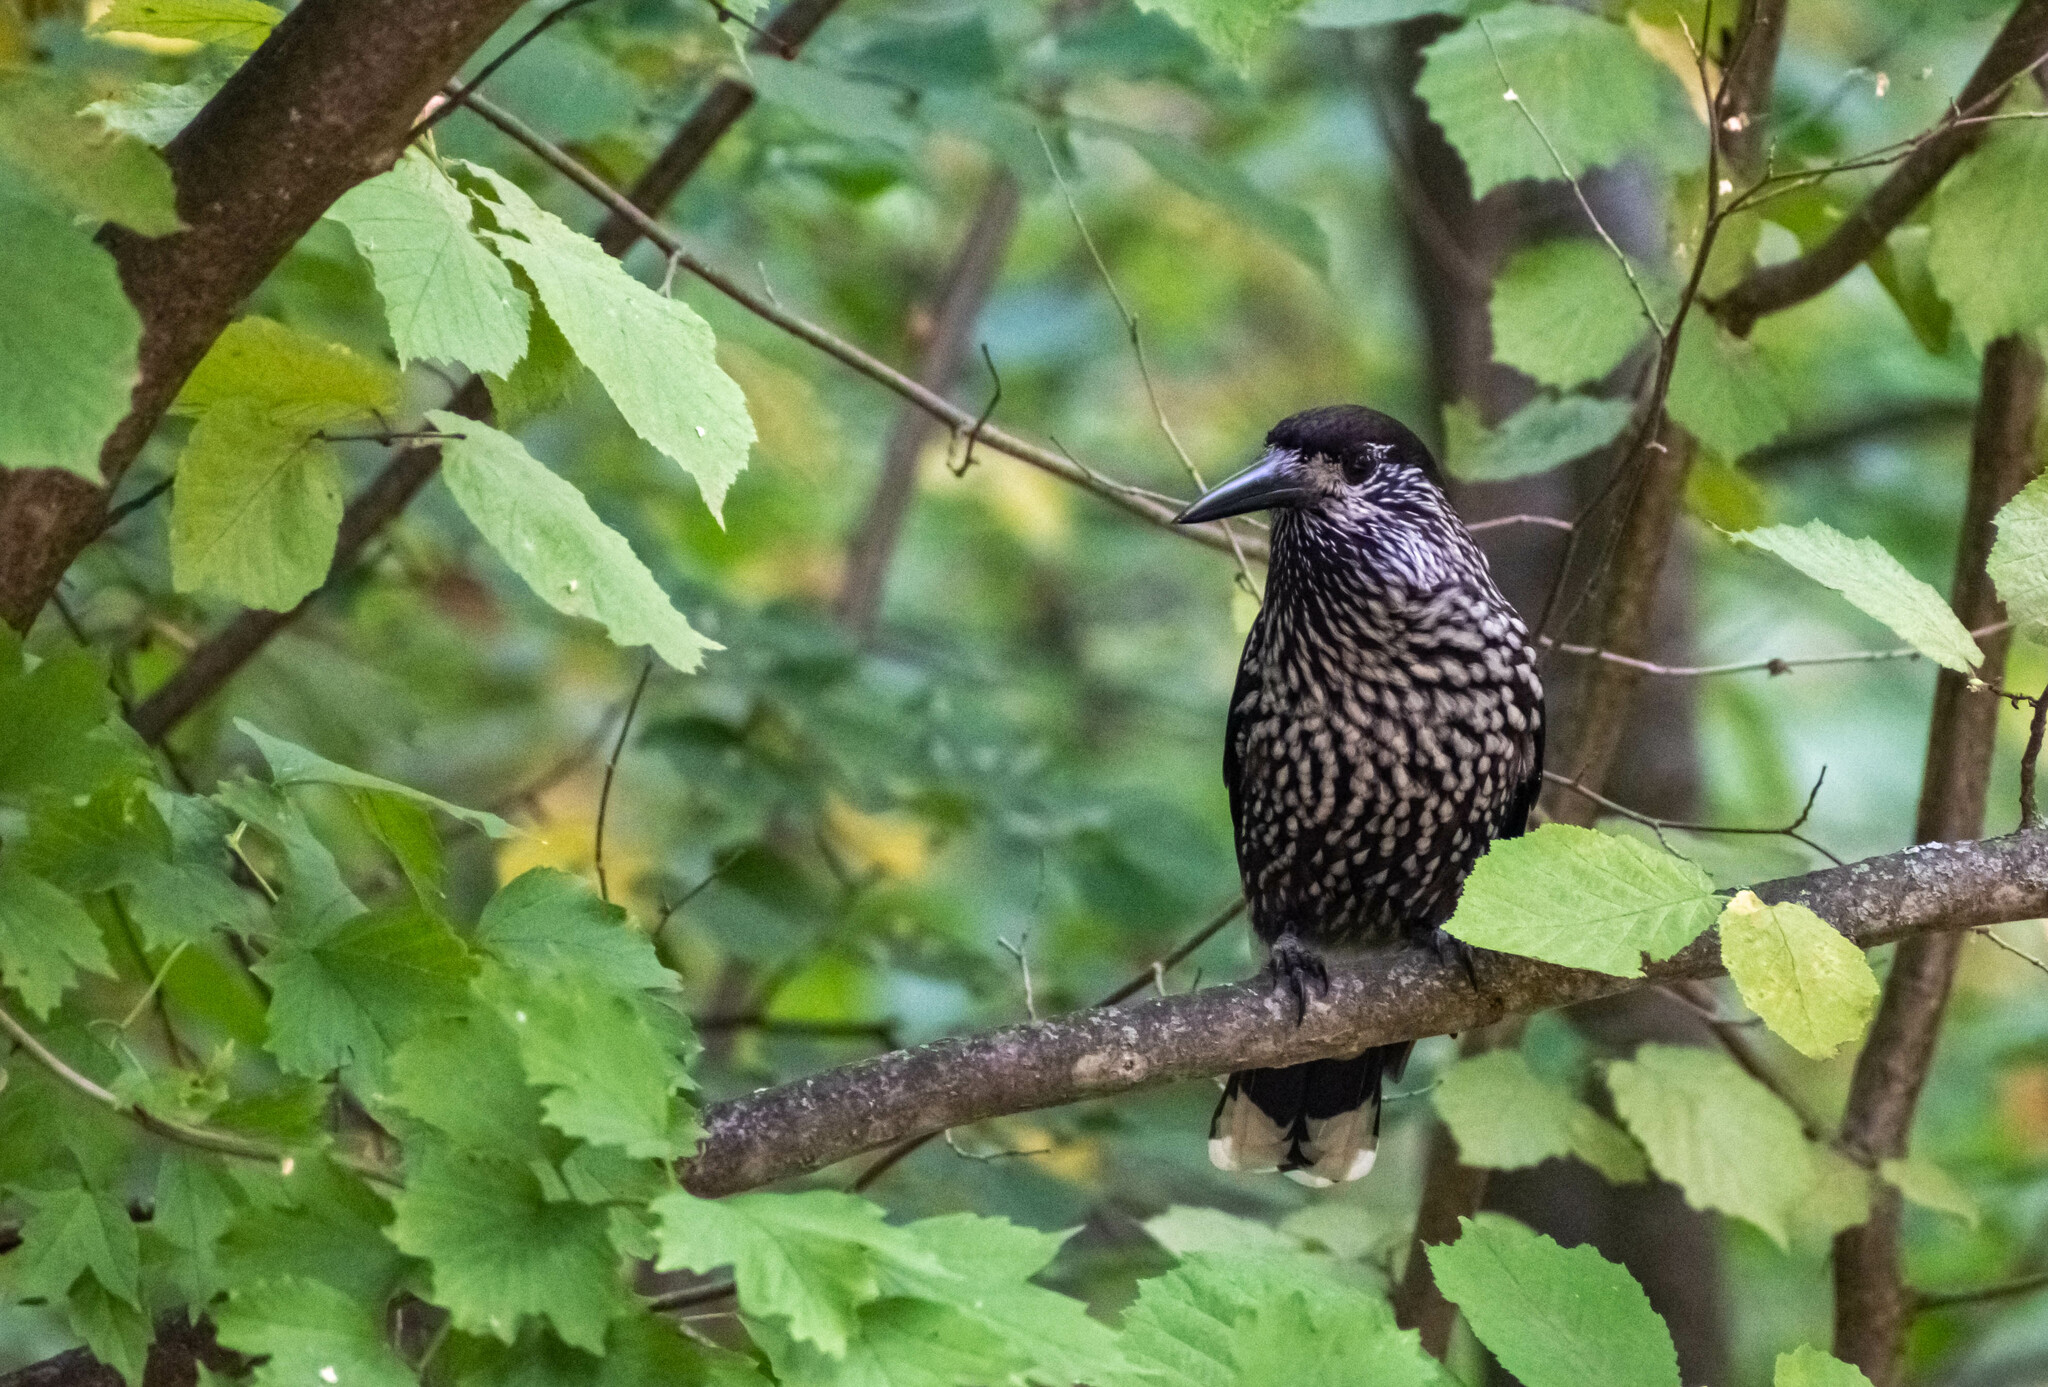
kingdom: Animalia
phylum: Chordata
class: Aves
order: Passeriformes
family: Corvidae
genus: Nucifraga
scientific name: Nucifraga caryocatactes
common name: Spotted nutcracker
